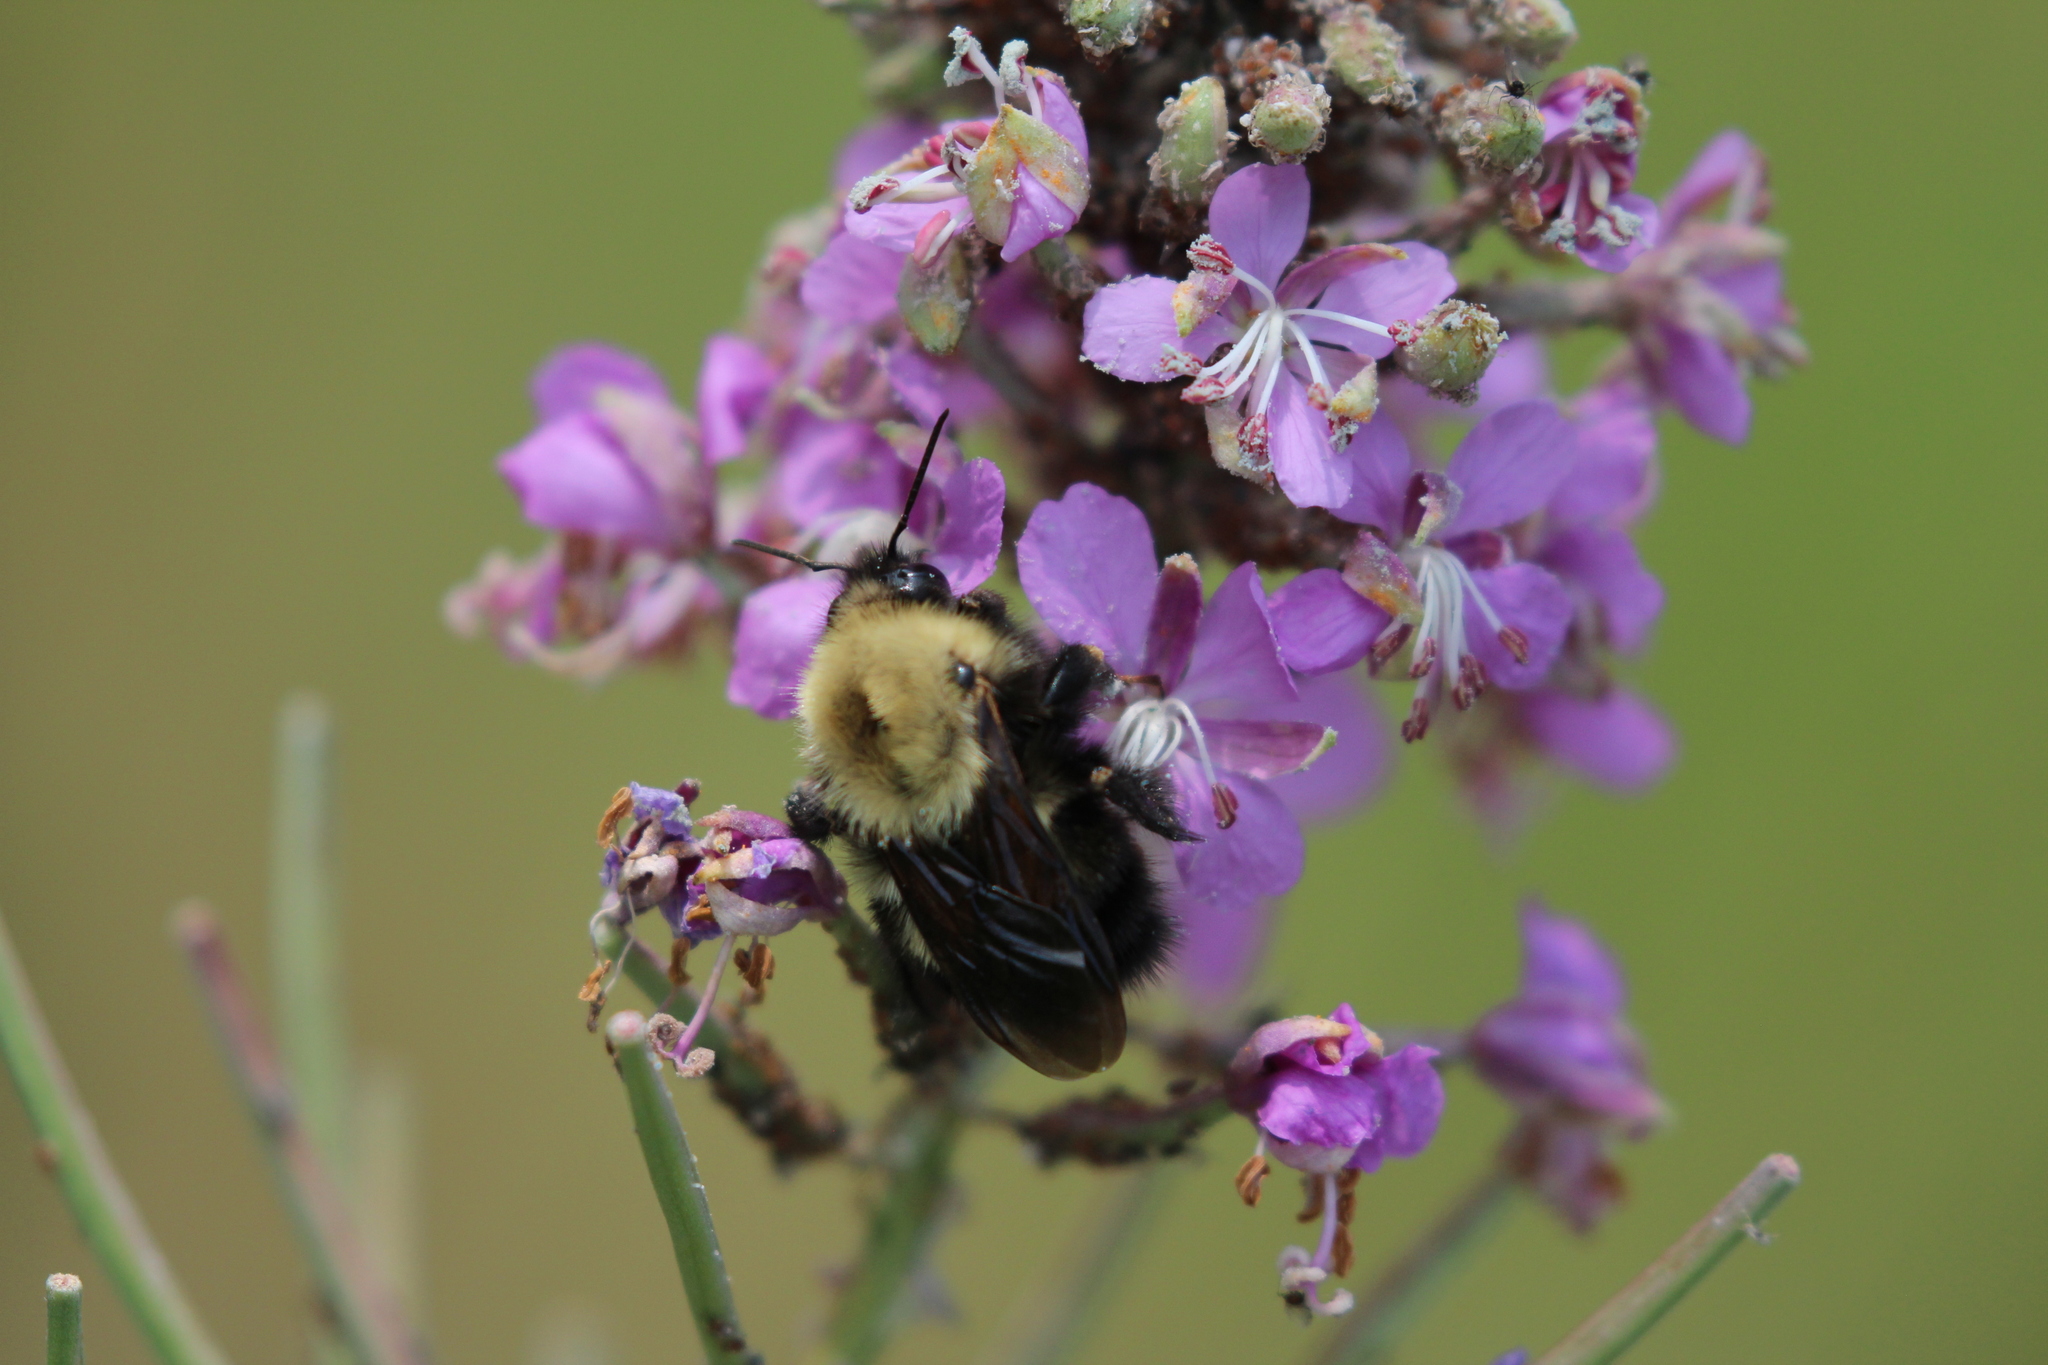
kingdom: Animalia
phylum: Arthropoda
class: Insecta
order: Hymenoptera
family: Apidae
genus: Bombus
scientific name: Bombus perplexus
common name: Confusing bumble bee
